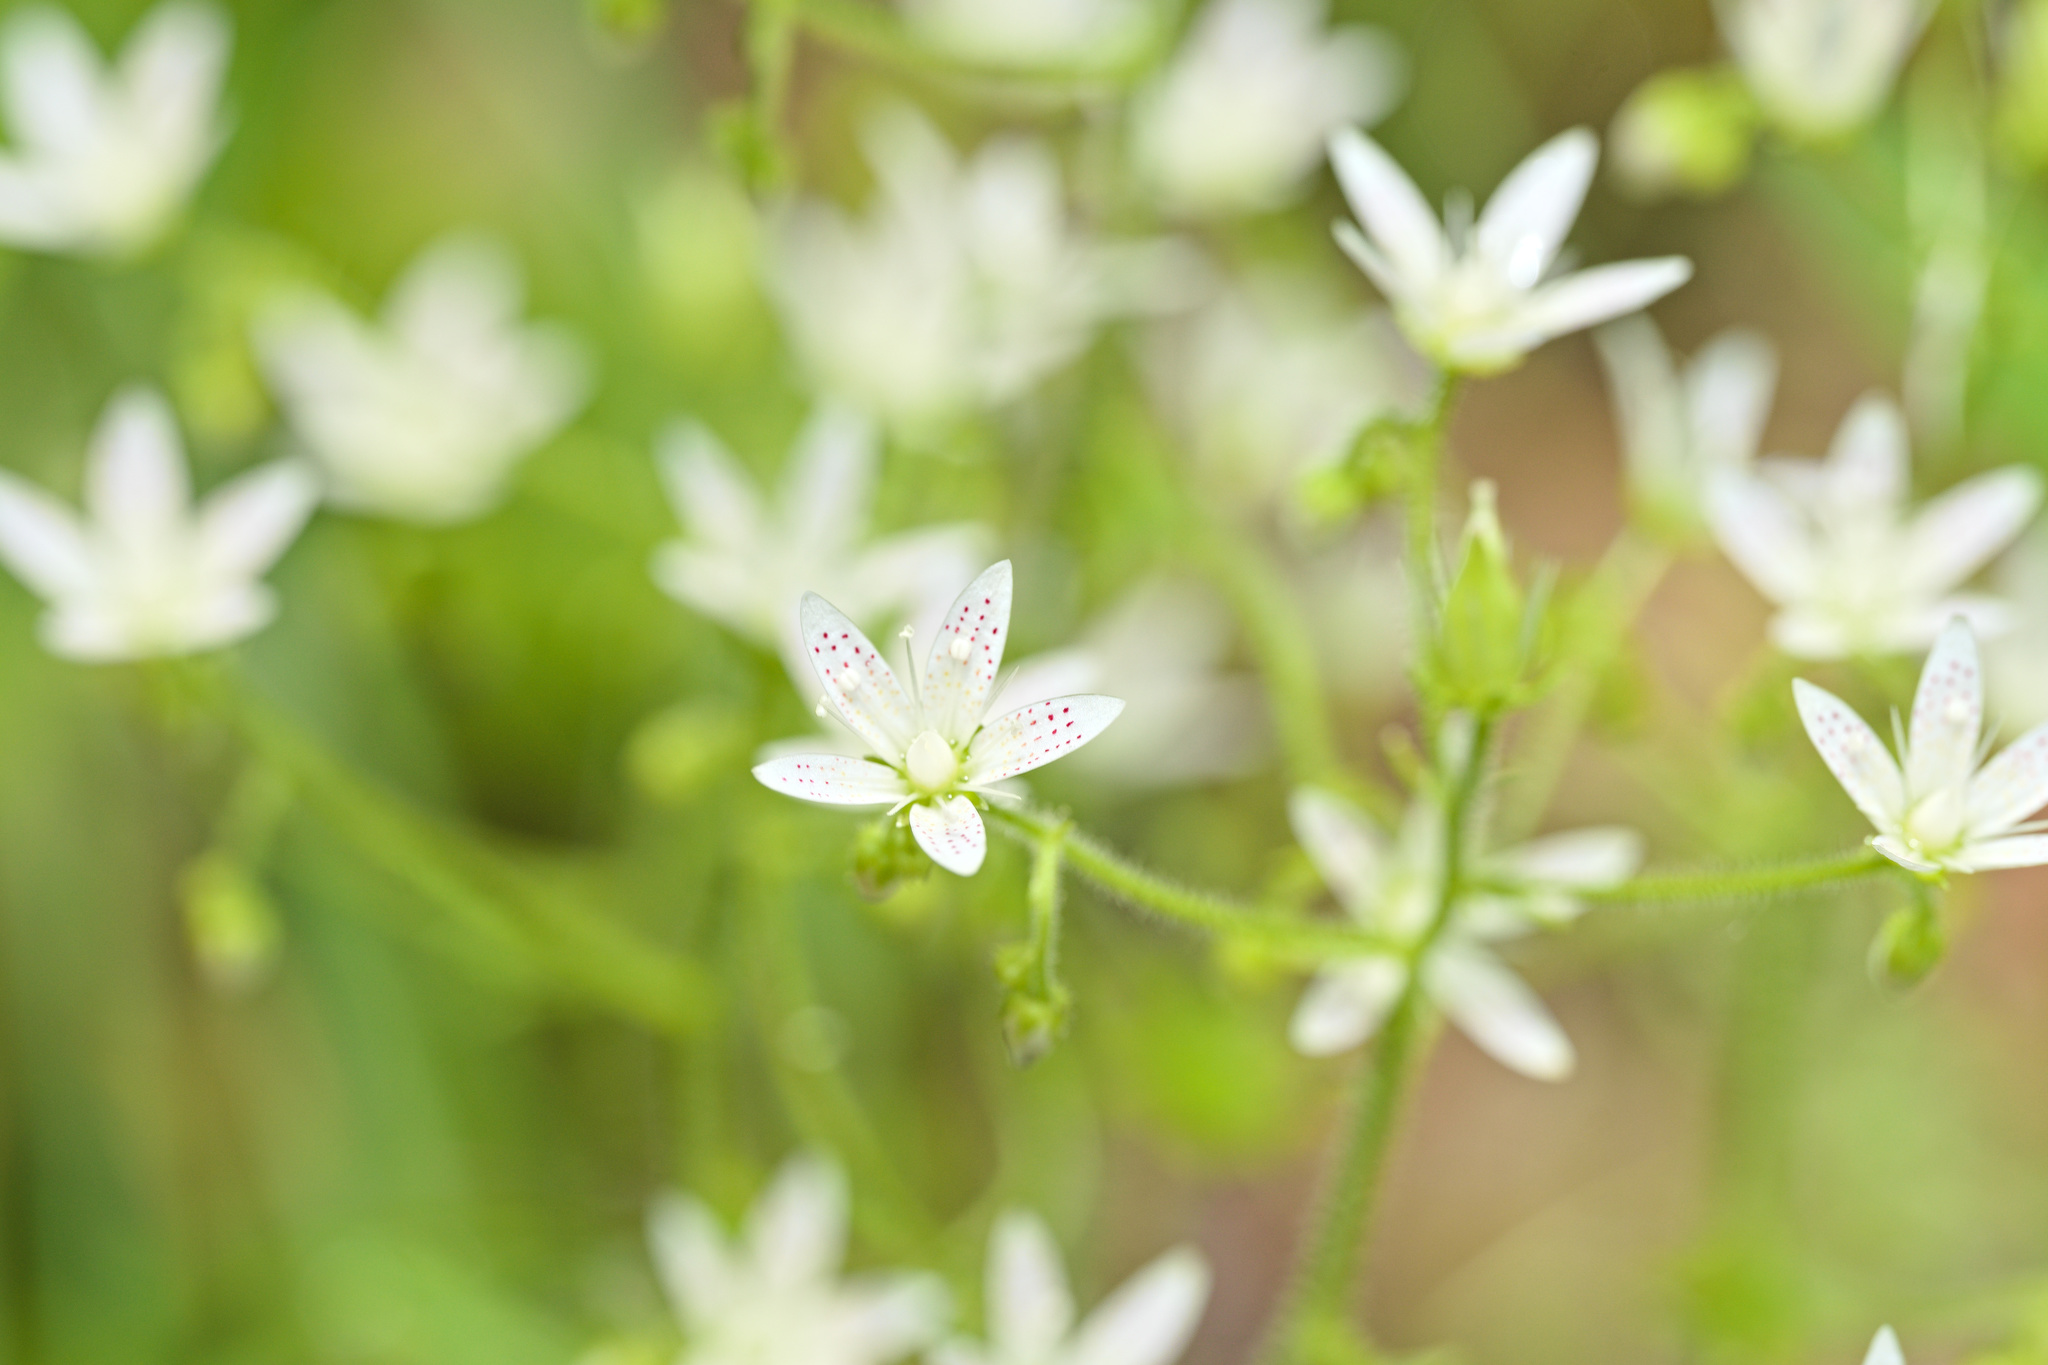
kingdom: Plantae
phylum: Tracheophyta
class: Magnoliopsida
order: Saxifragales
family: Saxifragaceae
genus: Saxifraga
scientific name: Saxifraga rotundifolia
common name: Round-leaved saxifrage
